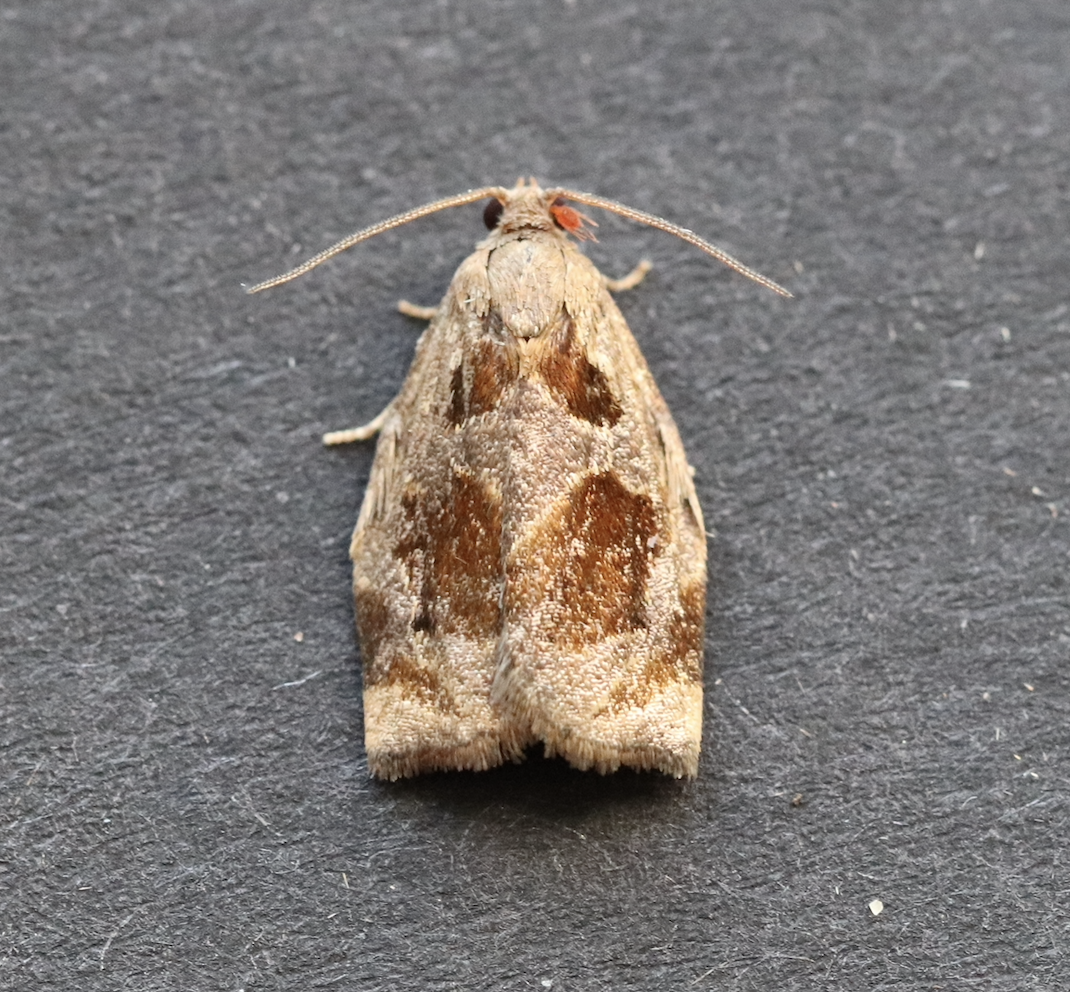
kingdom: Animalia
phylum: Arthropoda
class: Insecta
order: Lepidoptera
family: Tortricidae
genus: Archips
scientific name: Archips crataegana
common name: Brown oak tortrix
